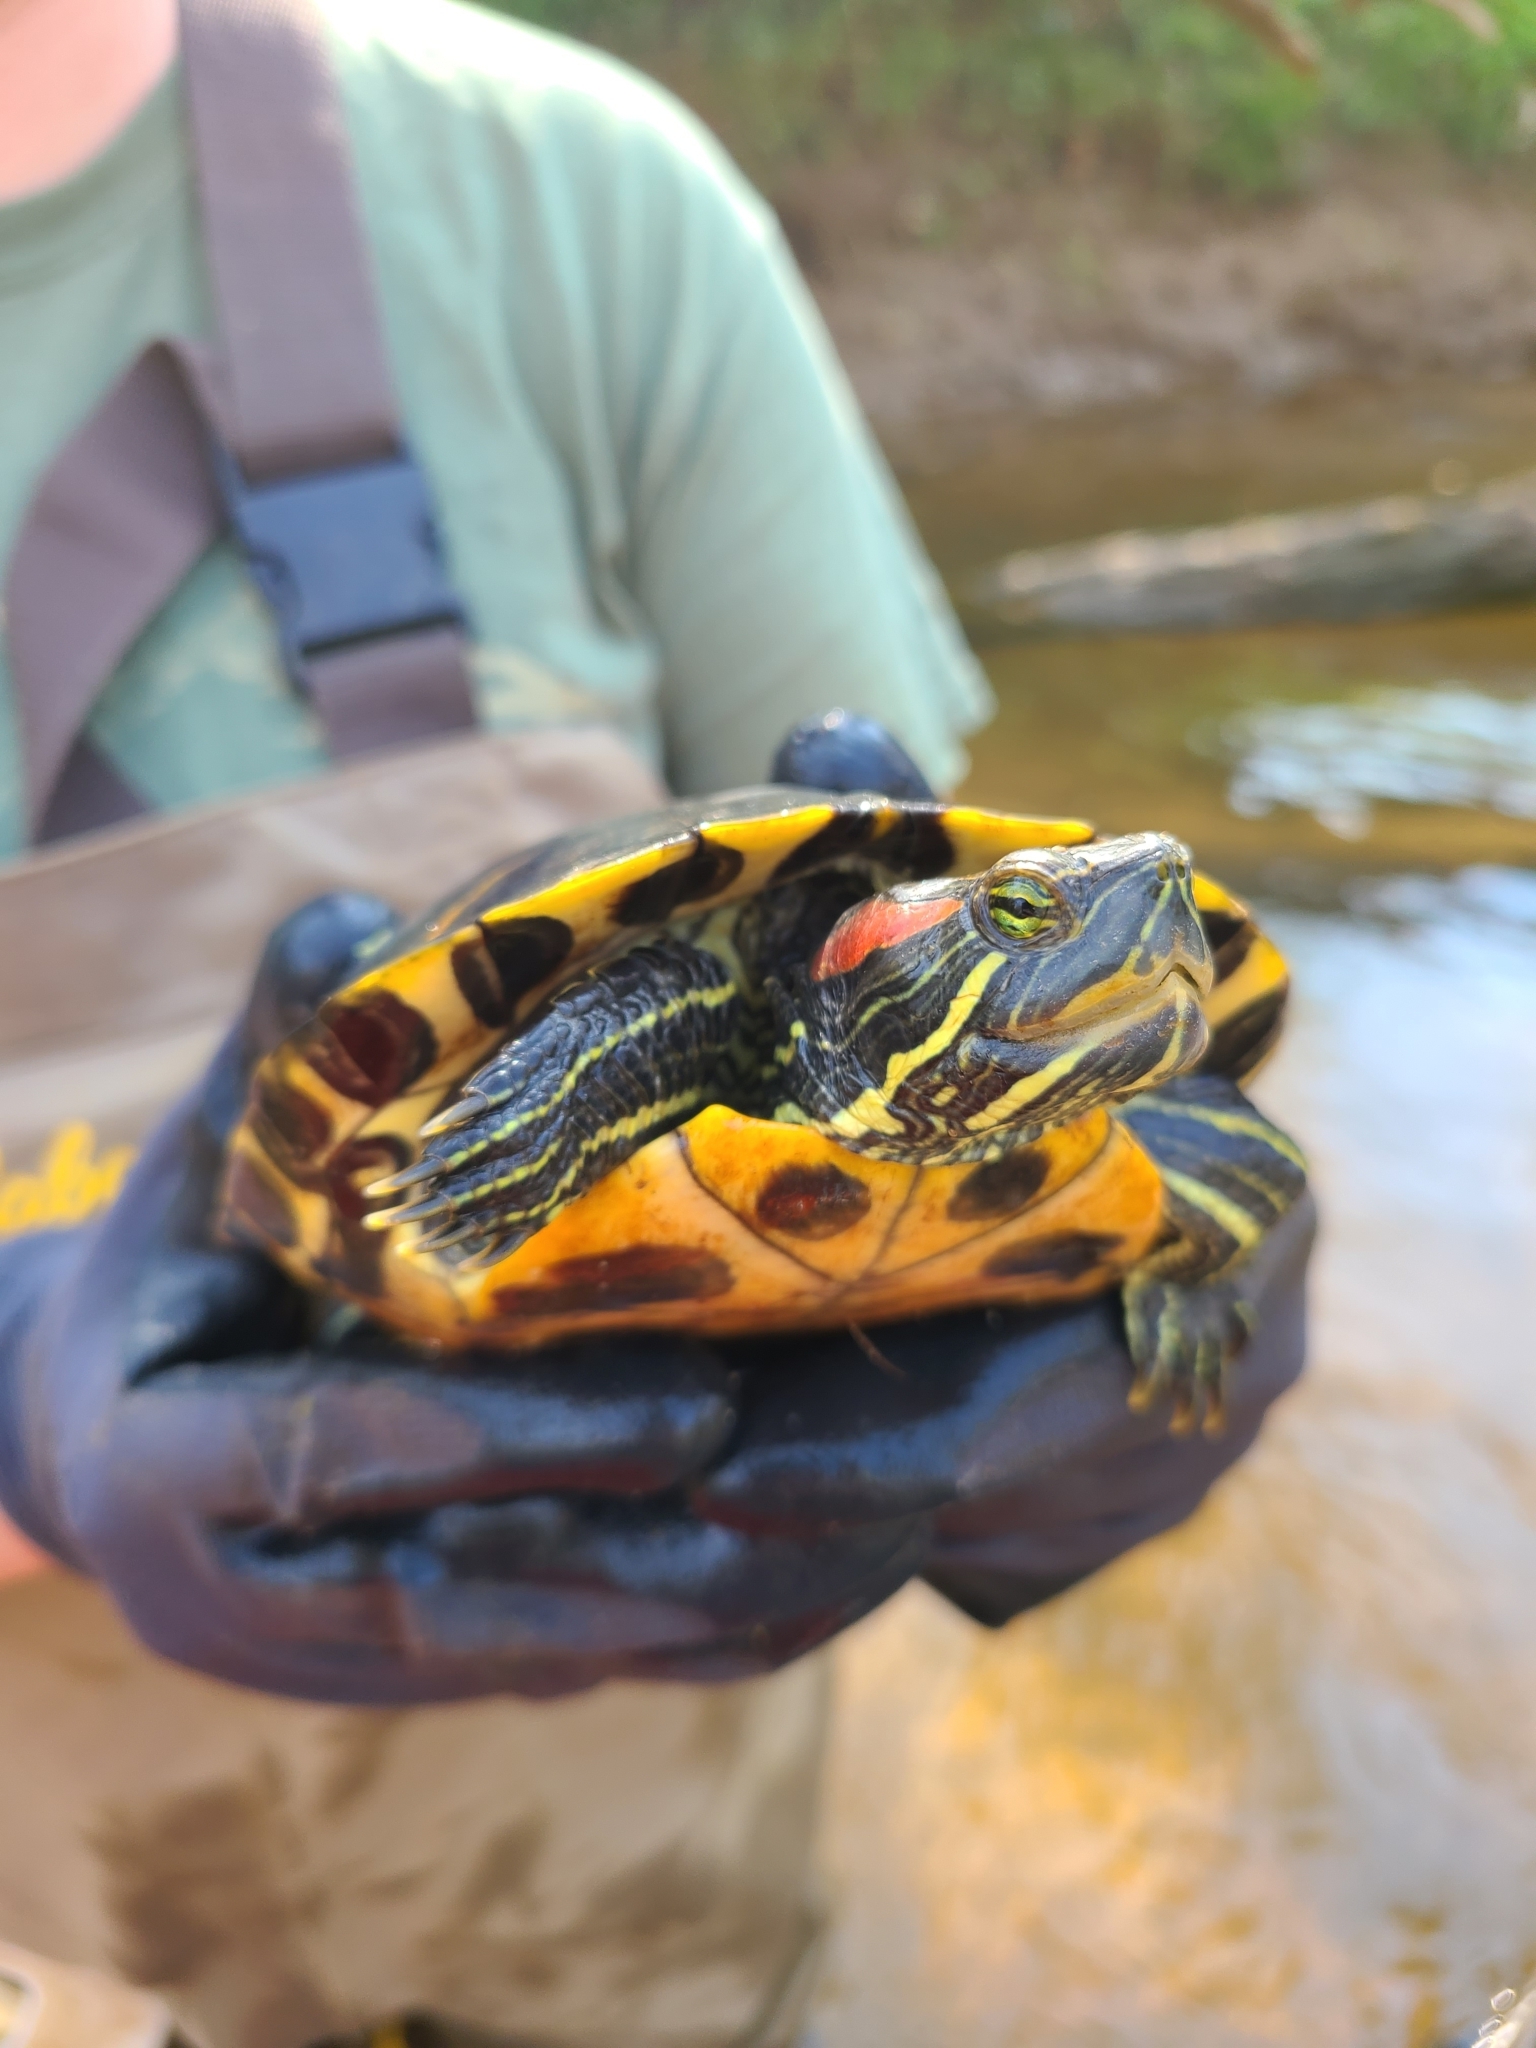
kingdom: Animalia
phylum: Chordata
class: Testudines
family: Emydidae
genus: Trachemys
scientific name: Trachemys scripta
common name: Slider
